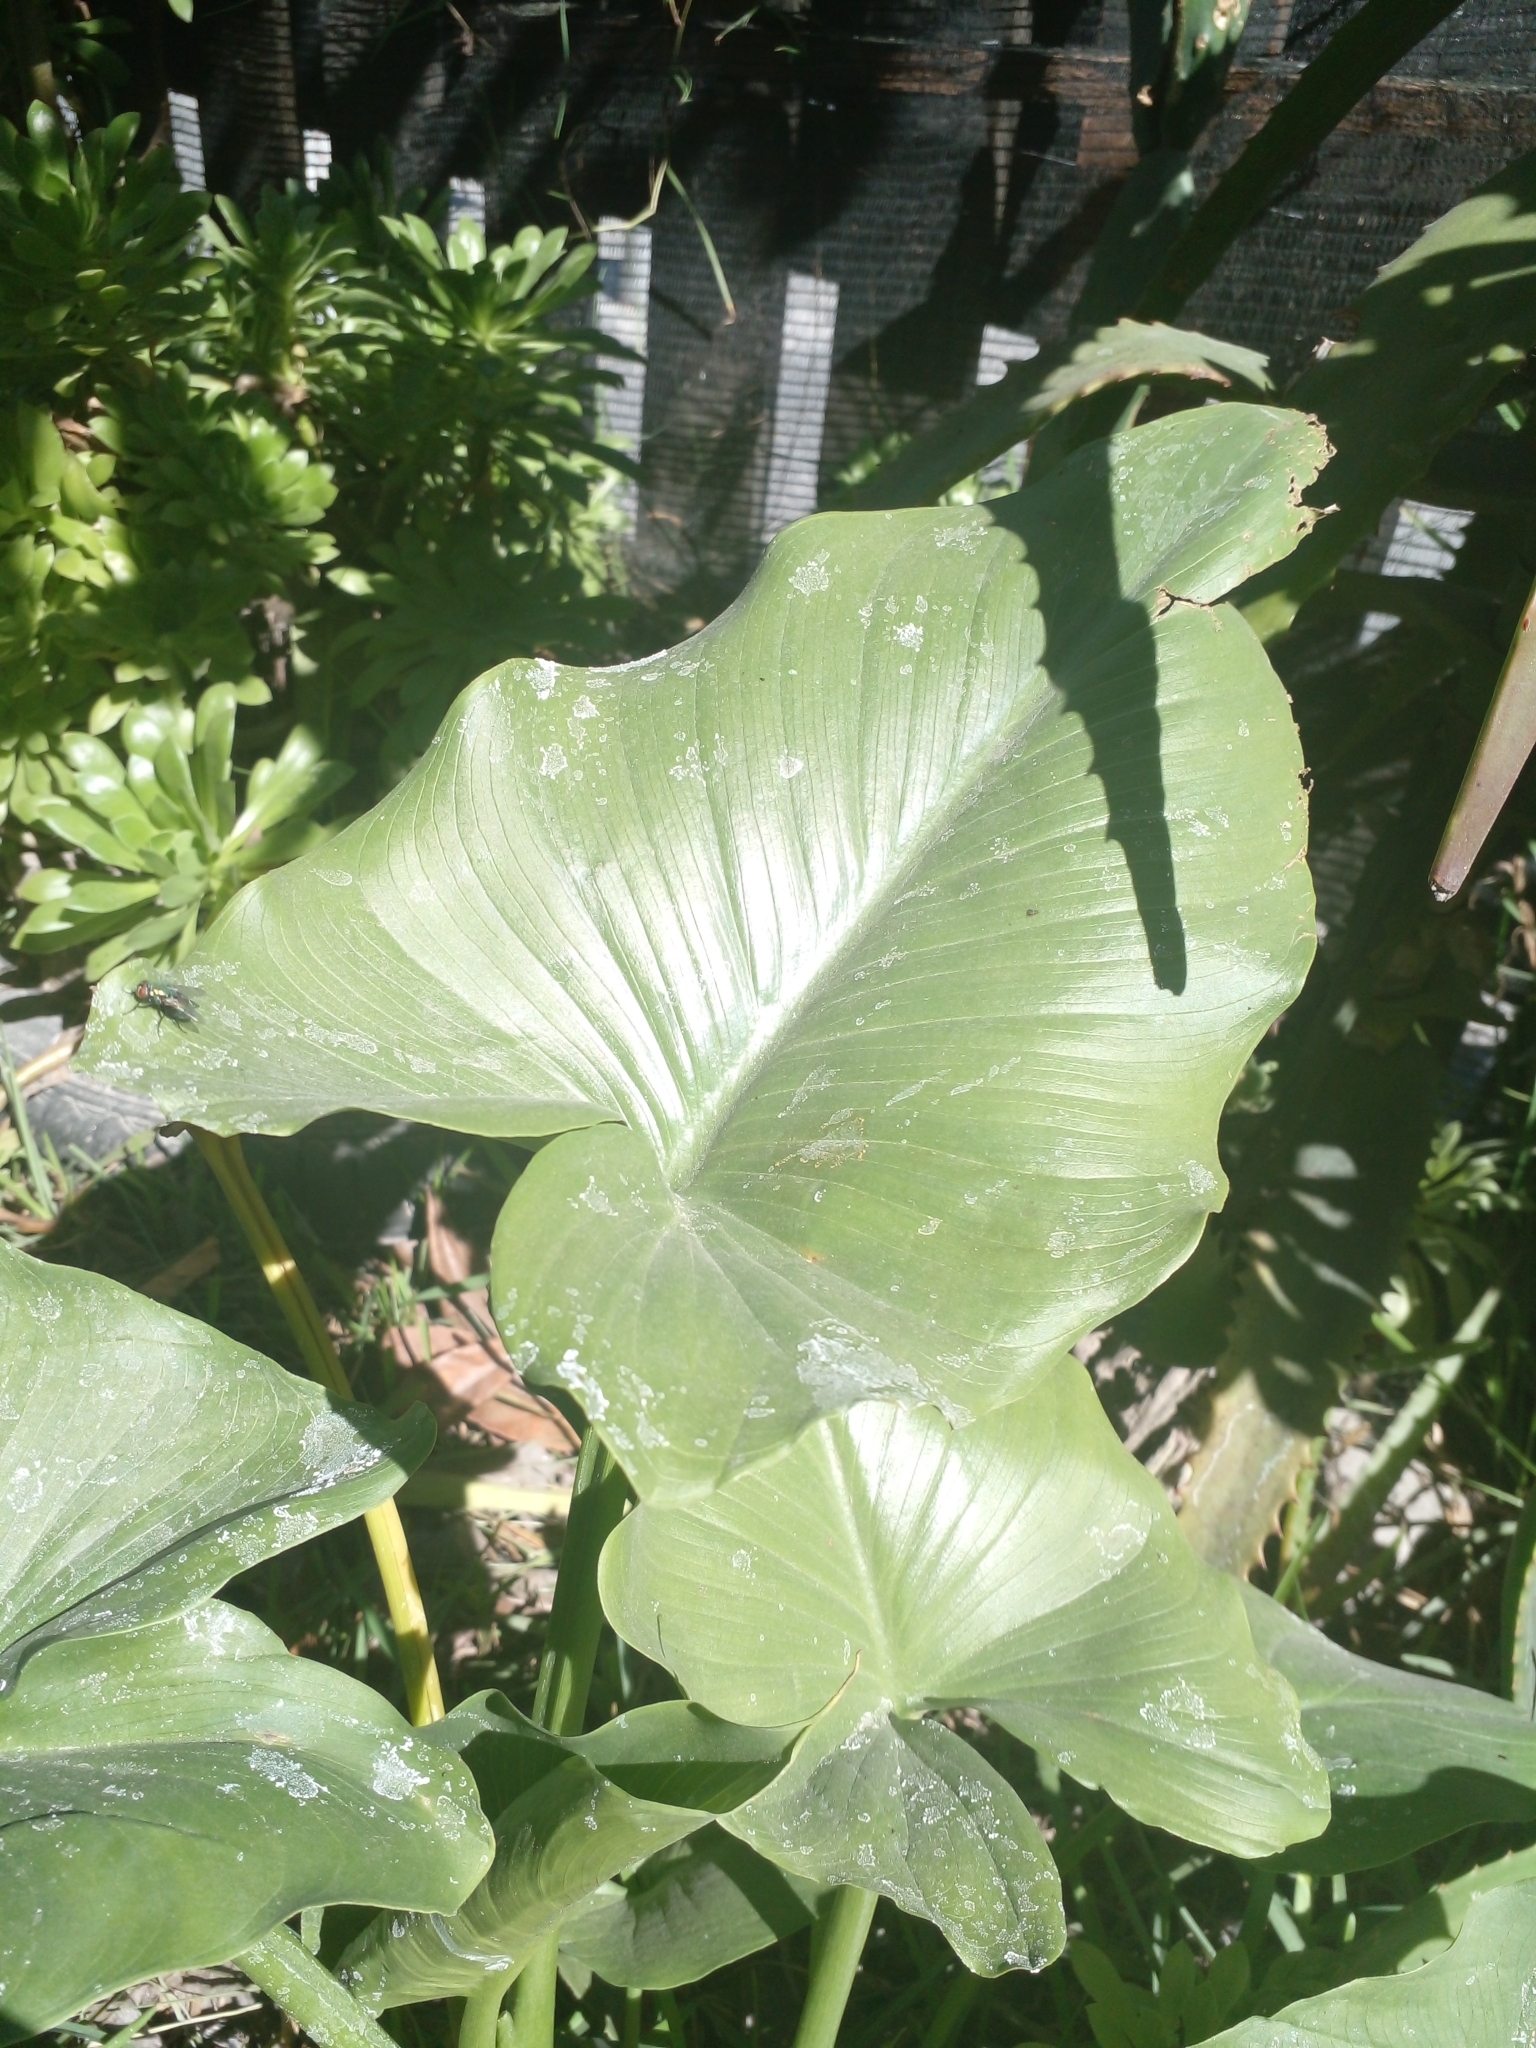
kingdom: Plantae
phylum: Tracheophyta
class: Liliopsida
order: Alismatales
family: Araceae
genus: Zantedeschia
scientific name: Zantedeschia aethiopica
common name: Altar-lily
